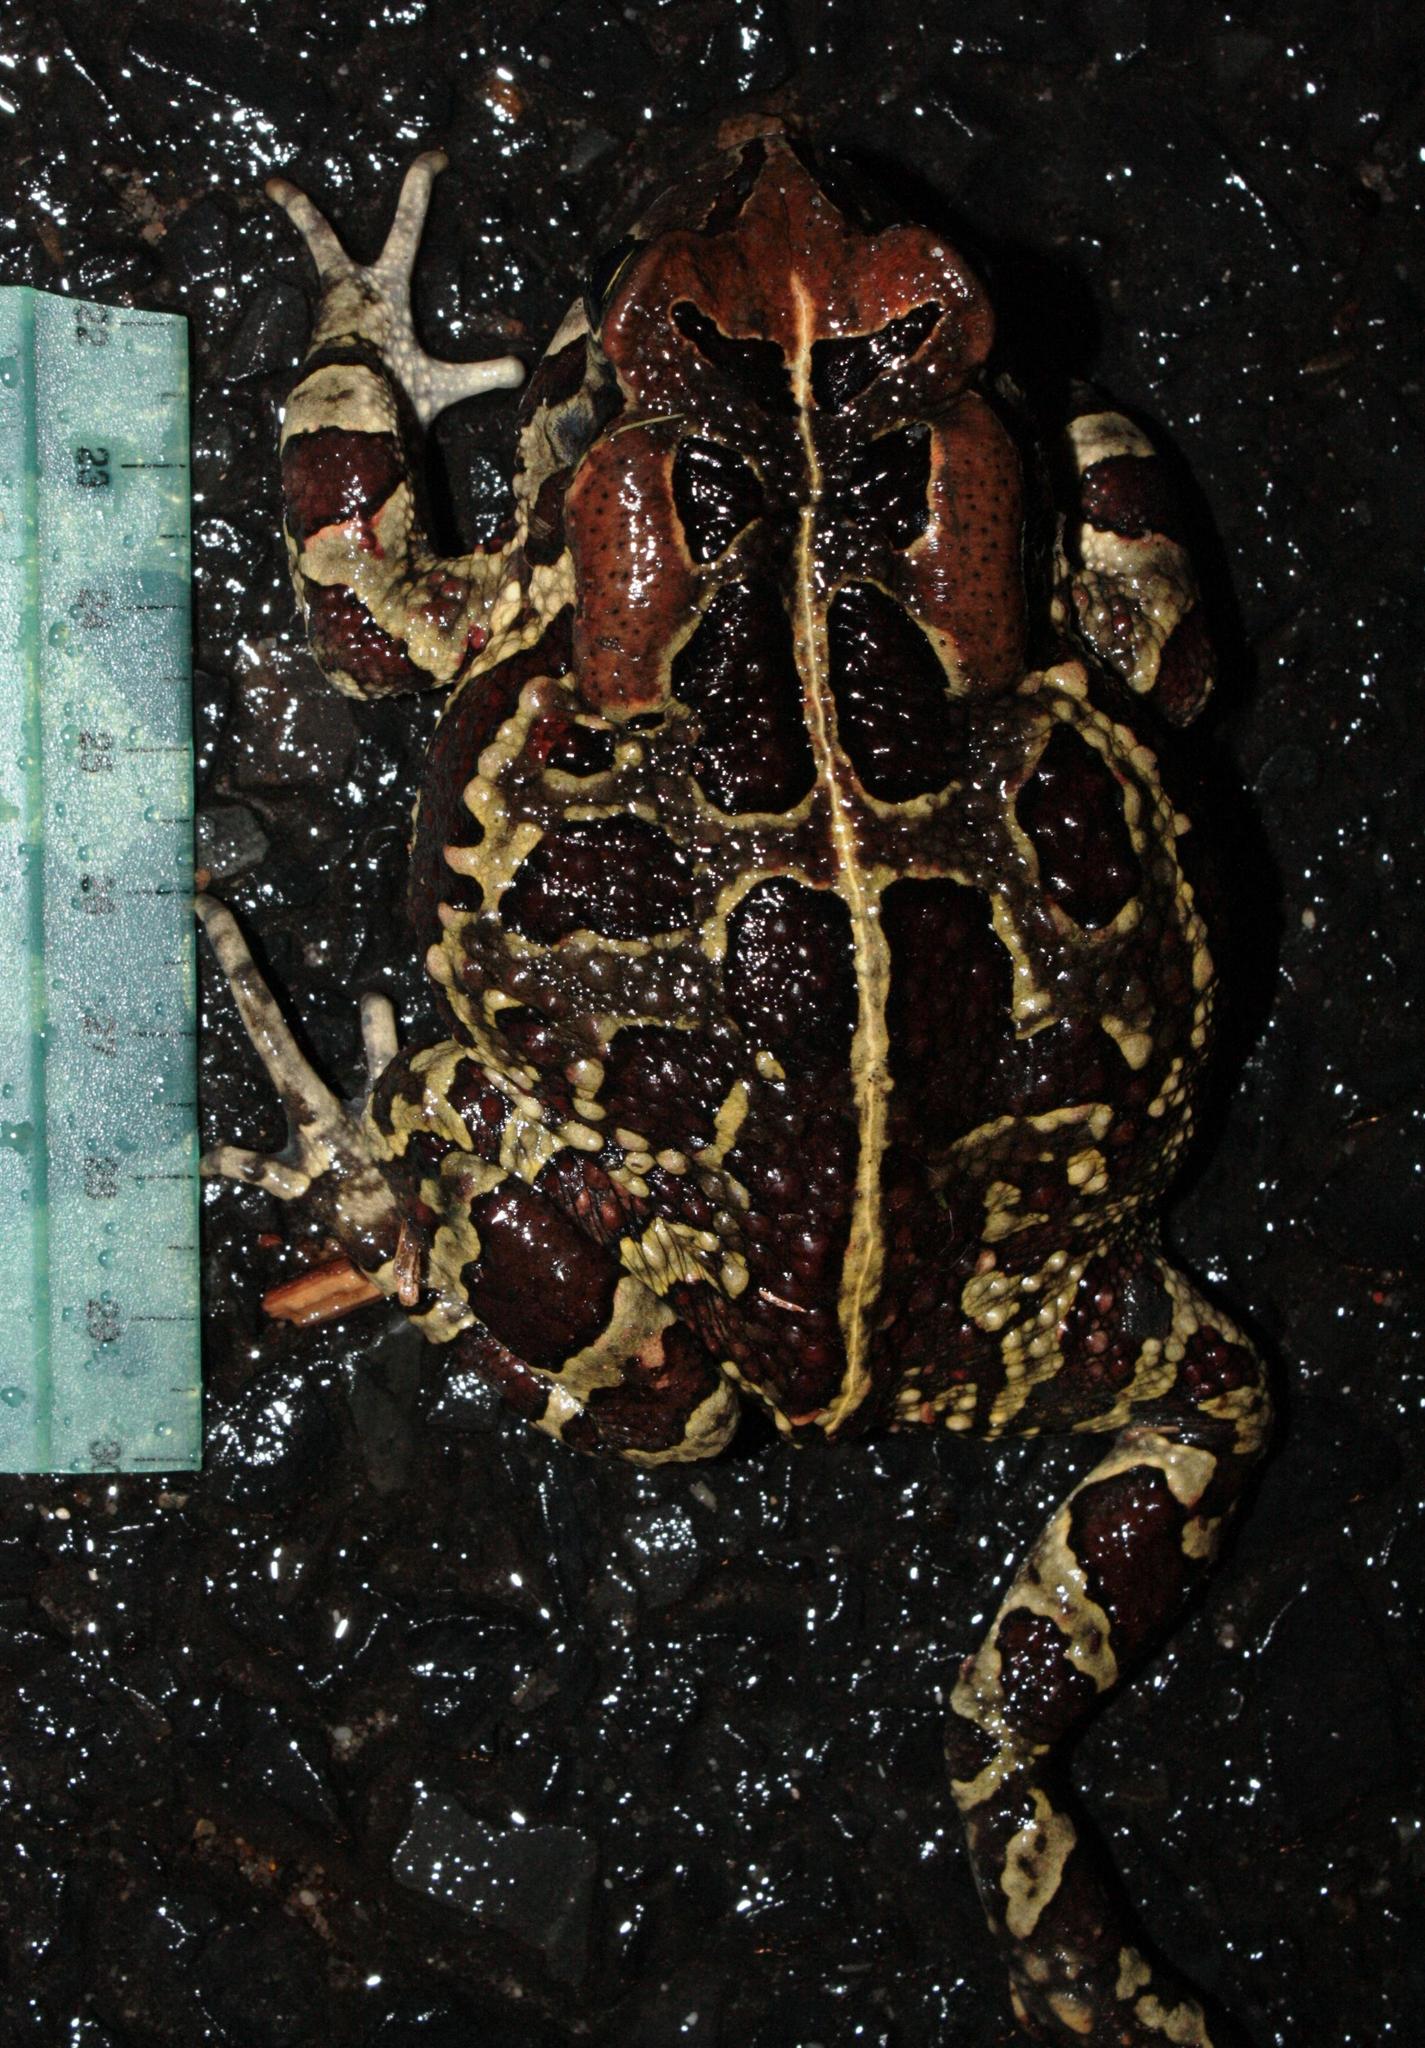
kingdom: Animalia
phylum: Chordata
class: Amphibia
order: Anura
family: Bufonidae
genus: Sclerophrys
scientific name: Sclerophrys pantherina
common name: Panther toad
